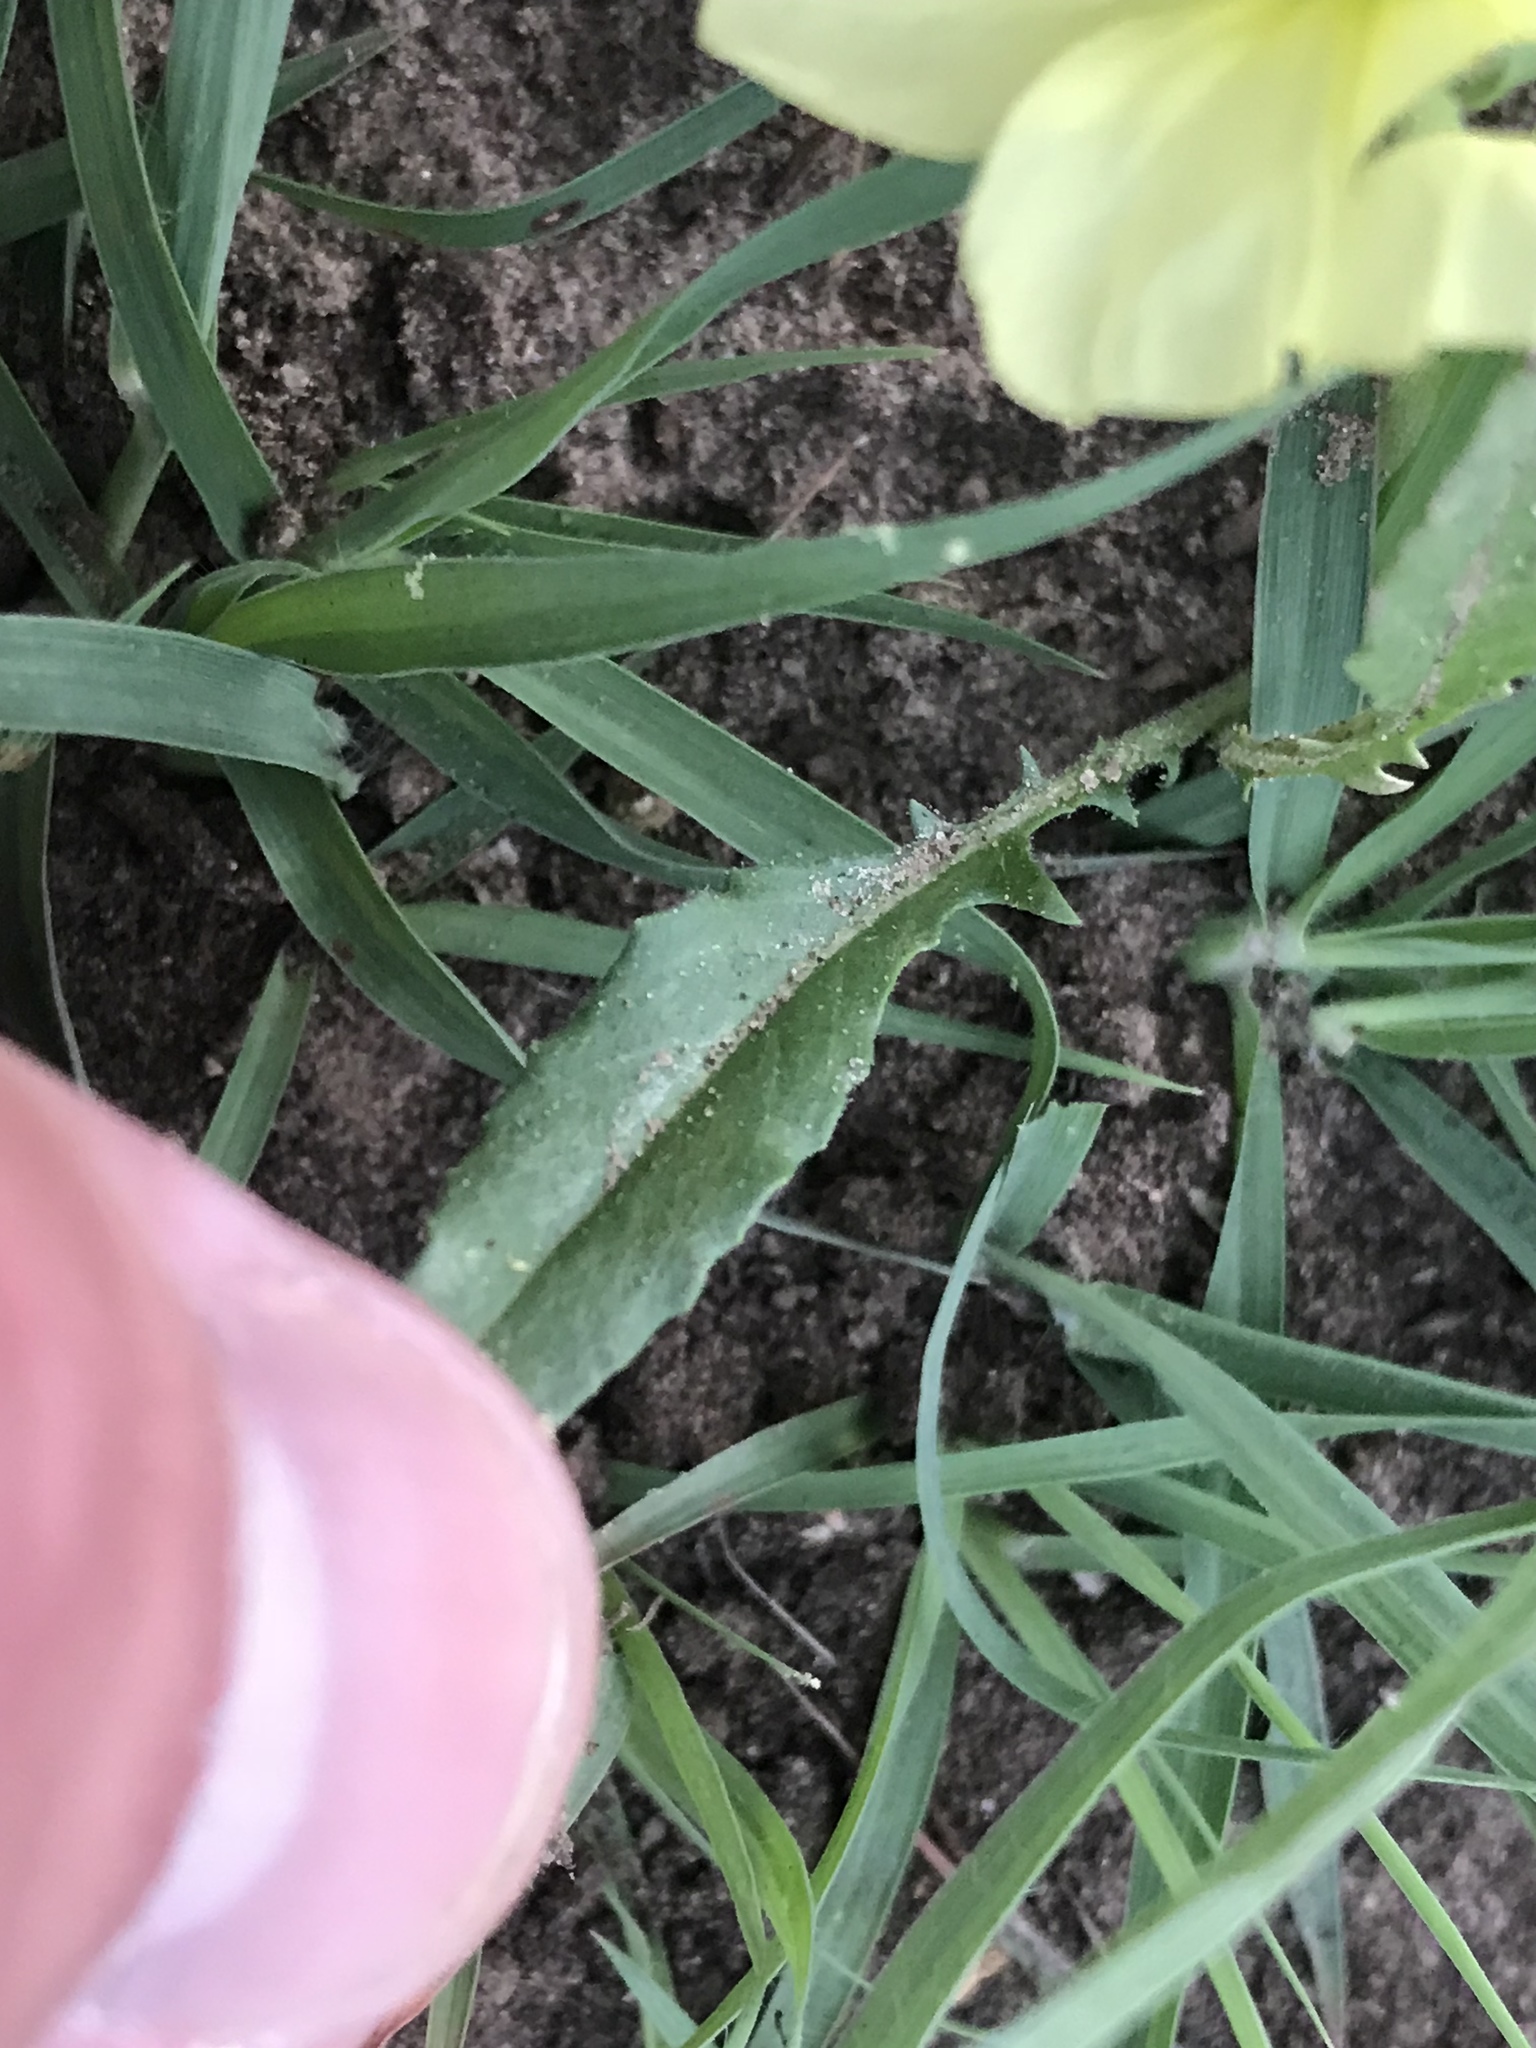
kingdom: Plantae
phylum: Tracheophyta
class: Magnoliopsida
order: Myrtales
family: Onagraceae
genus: Oenothera
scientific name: Oenothera triloba
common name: Sessile evening-primrose
